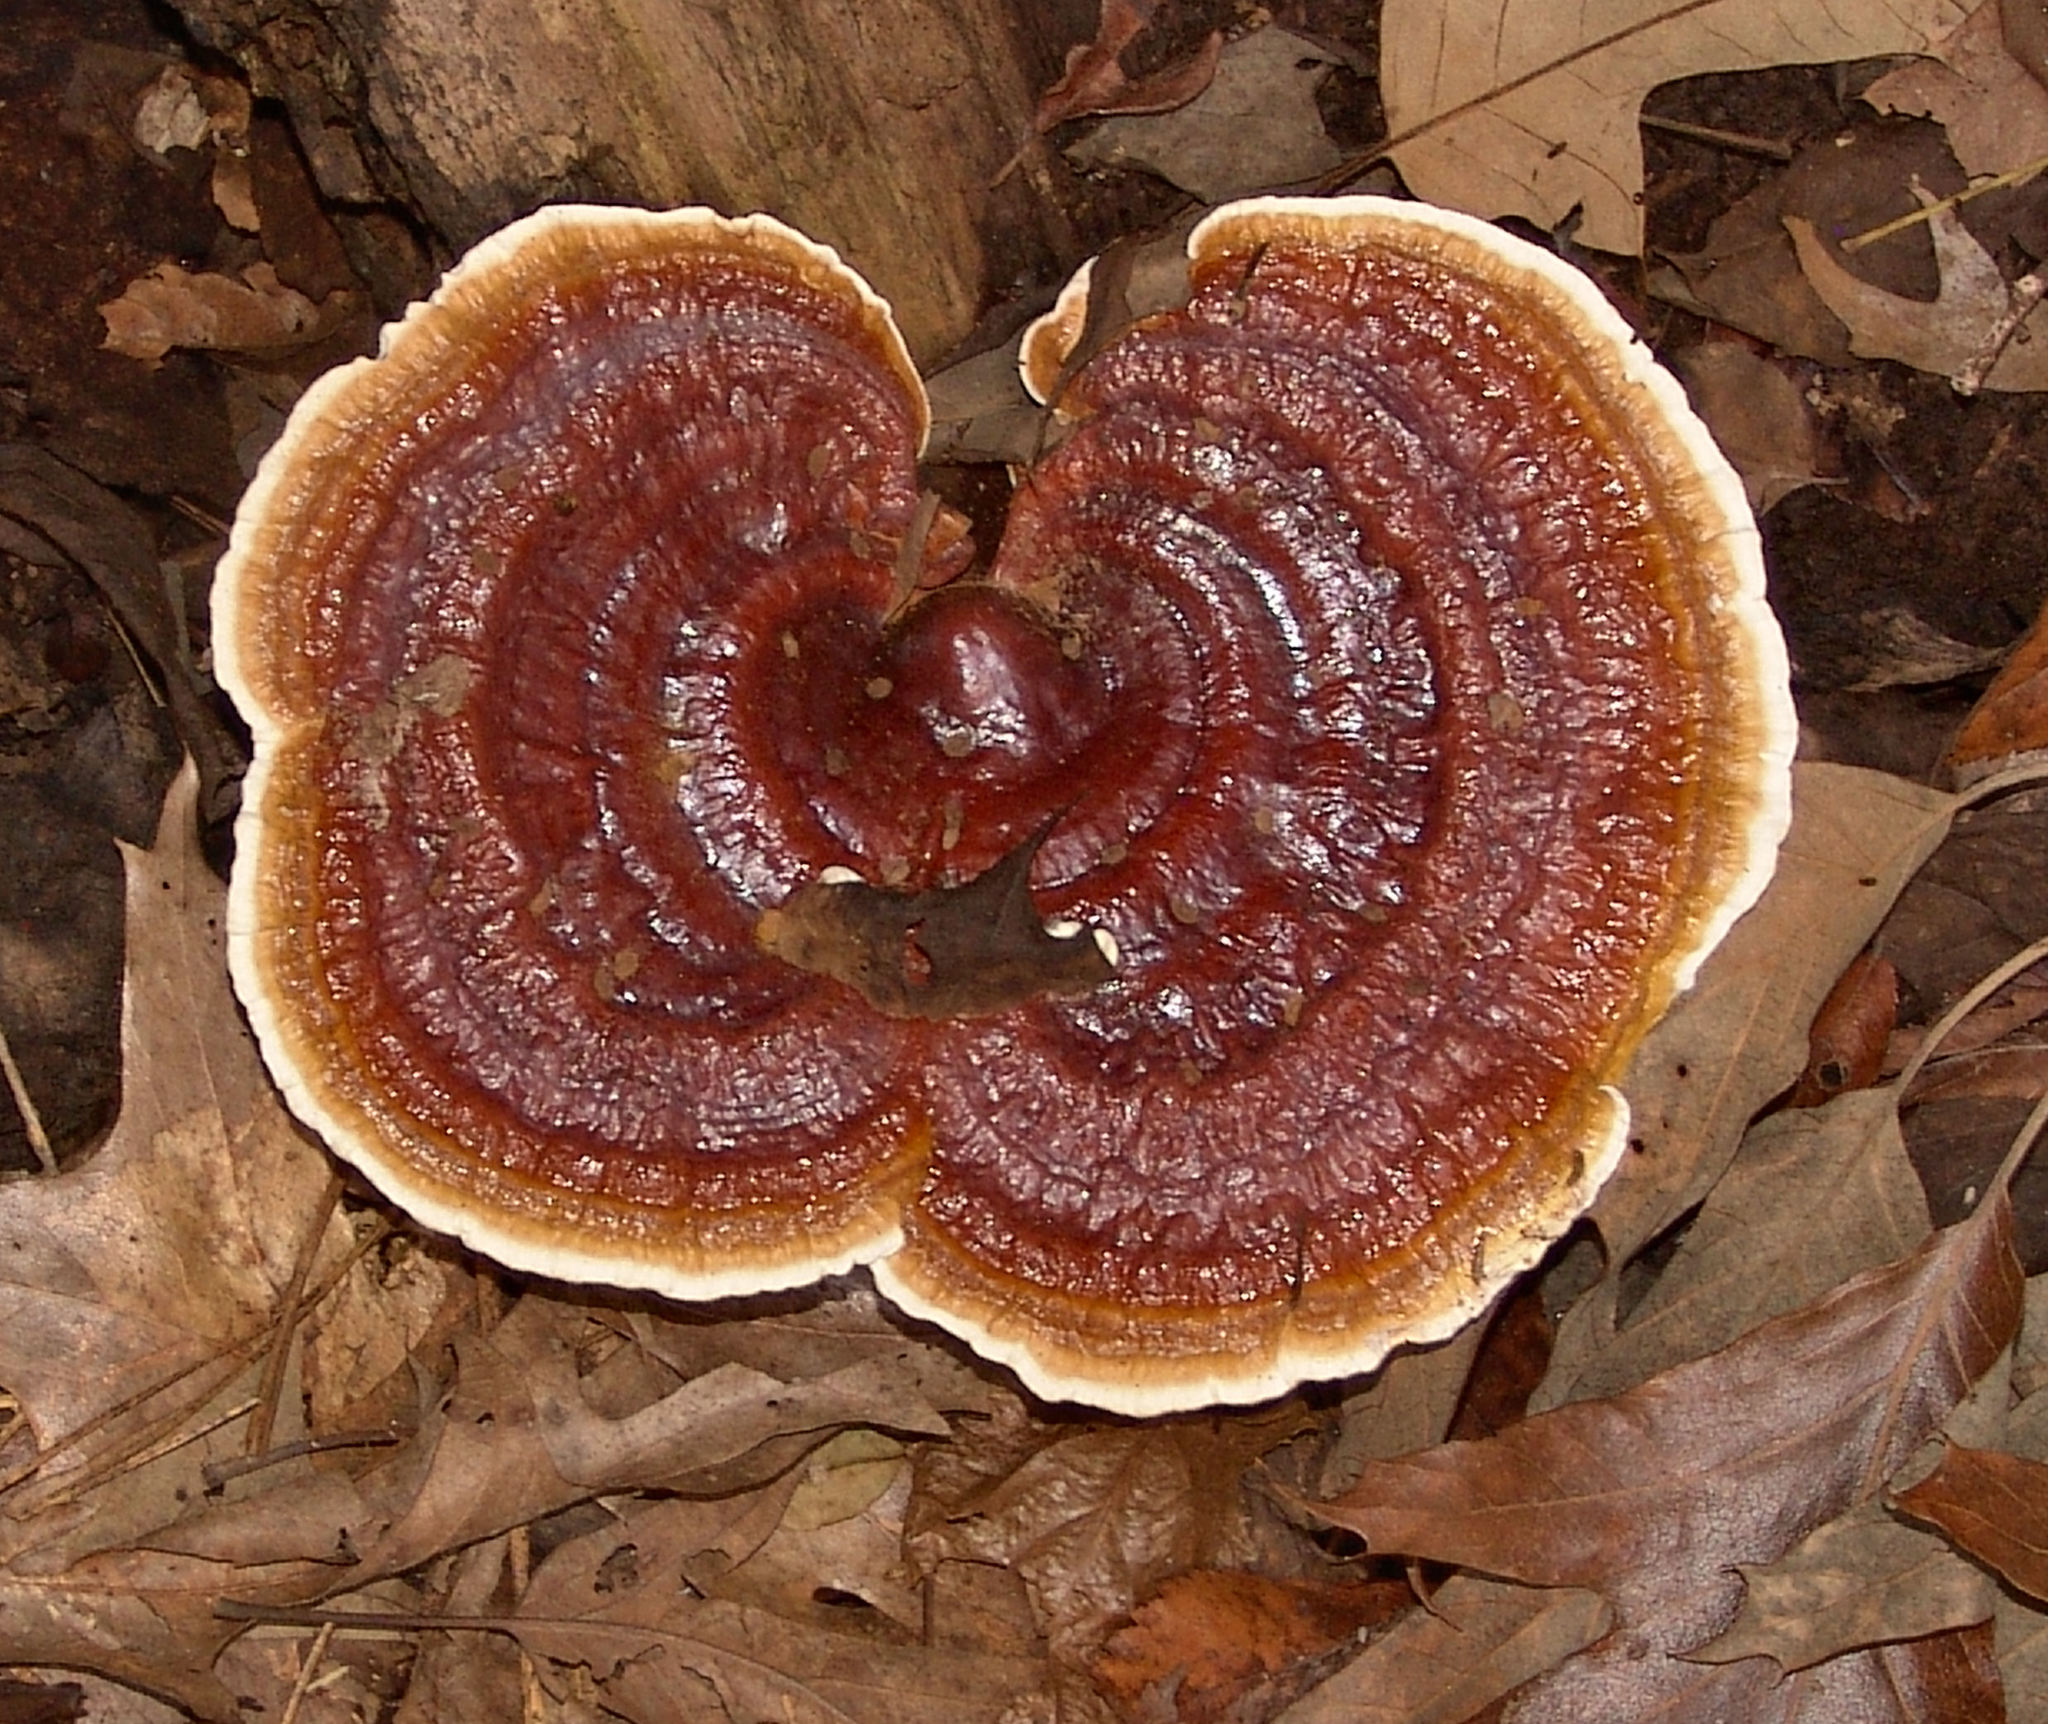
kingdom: Fungi
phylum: Basidiomycota
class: Agaricomycetes
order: Polyporales
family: Polyporaceae
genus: Ganoderma
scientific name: Ganoderma resinaceum
